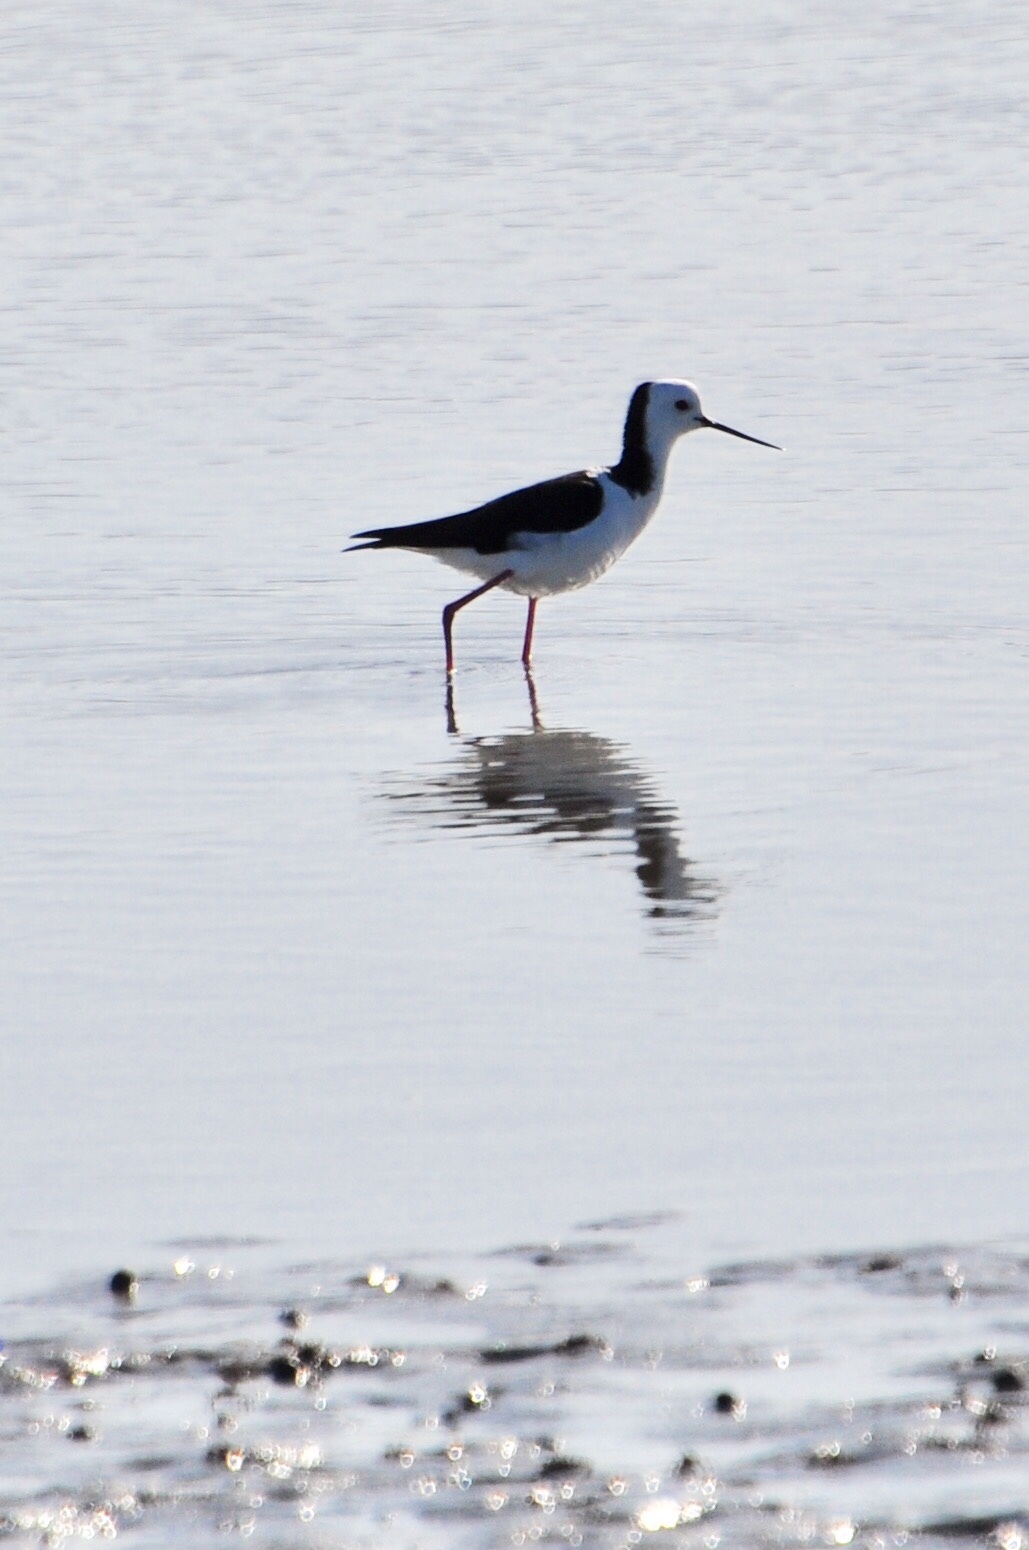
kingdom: Animalia
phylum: Chordata
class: Aves
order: Charadriiformes
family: Recurvirostridae
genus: Himantopus
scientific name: Himantopus leucocephalus
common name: White-headed stilt
